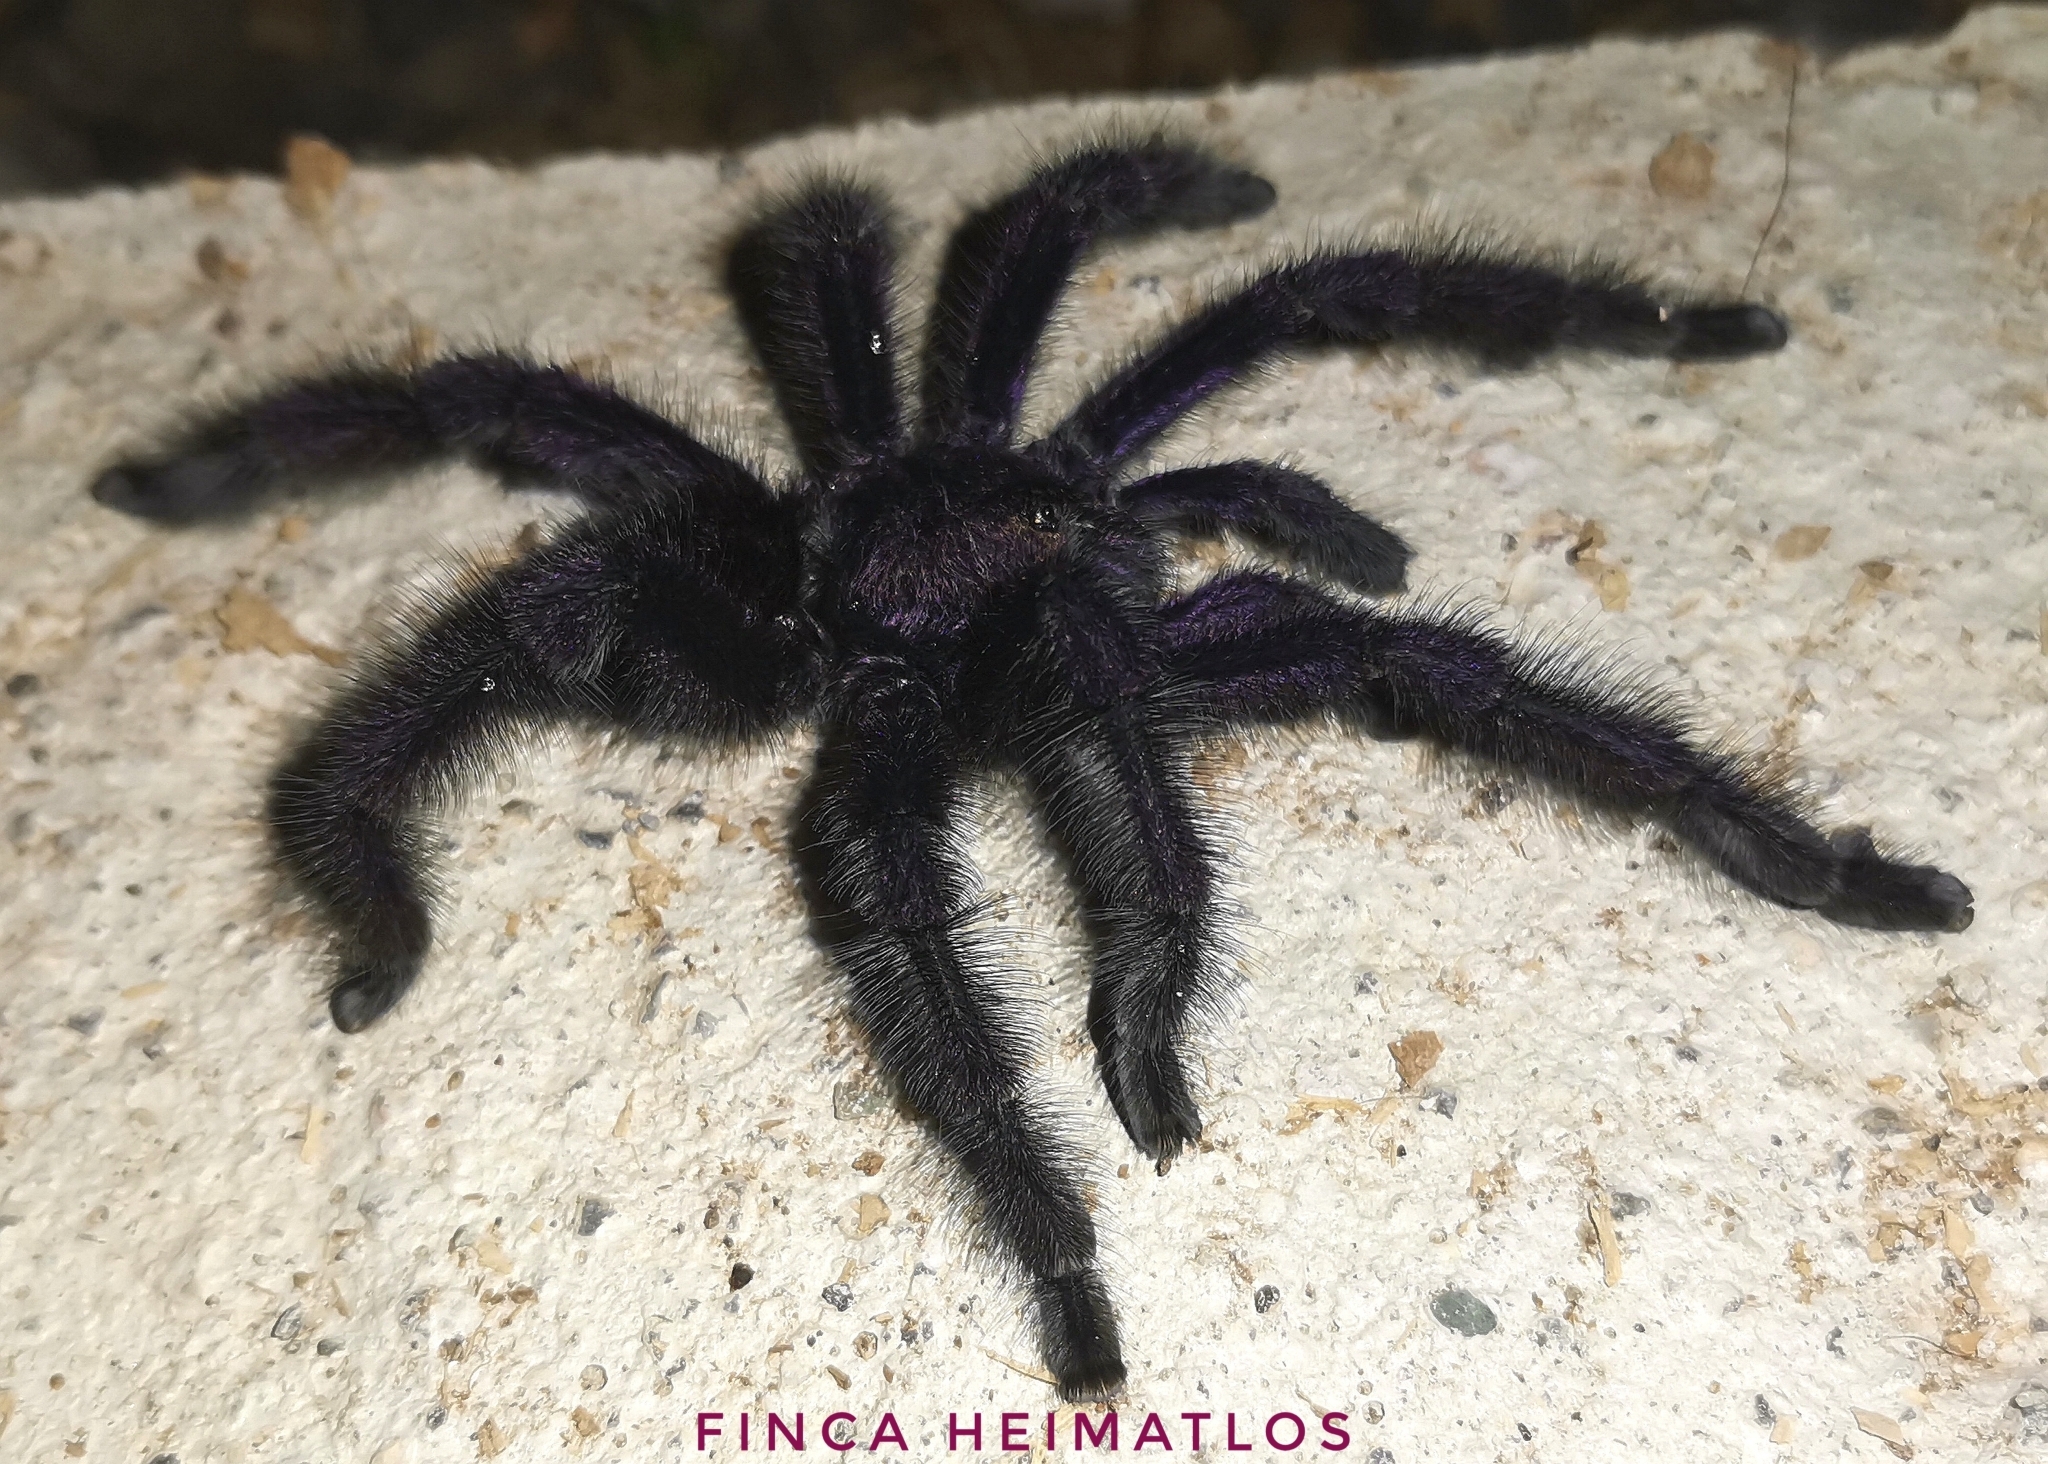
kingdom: Animalia
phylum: Arthropoda
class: Arachnida
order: Araneae
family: Theraphosidae
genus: Avicularia
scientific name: Avicularia purpurea
